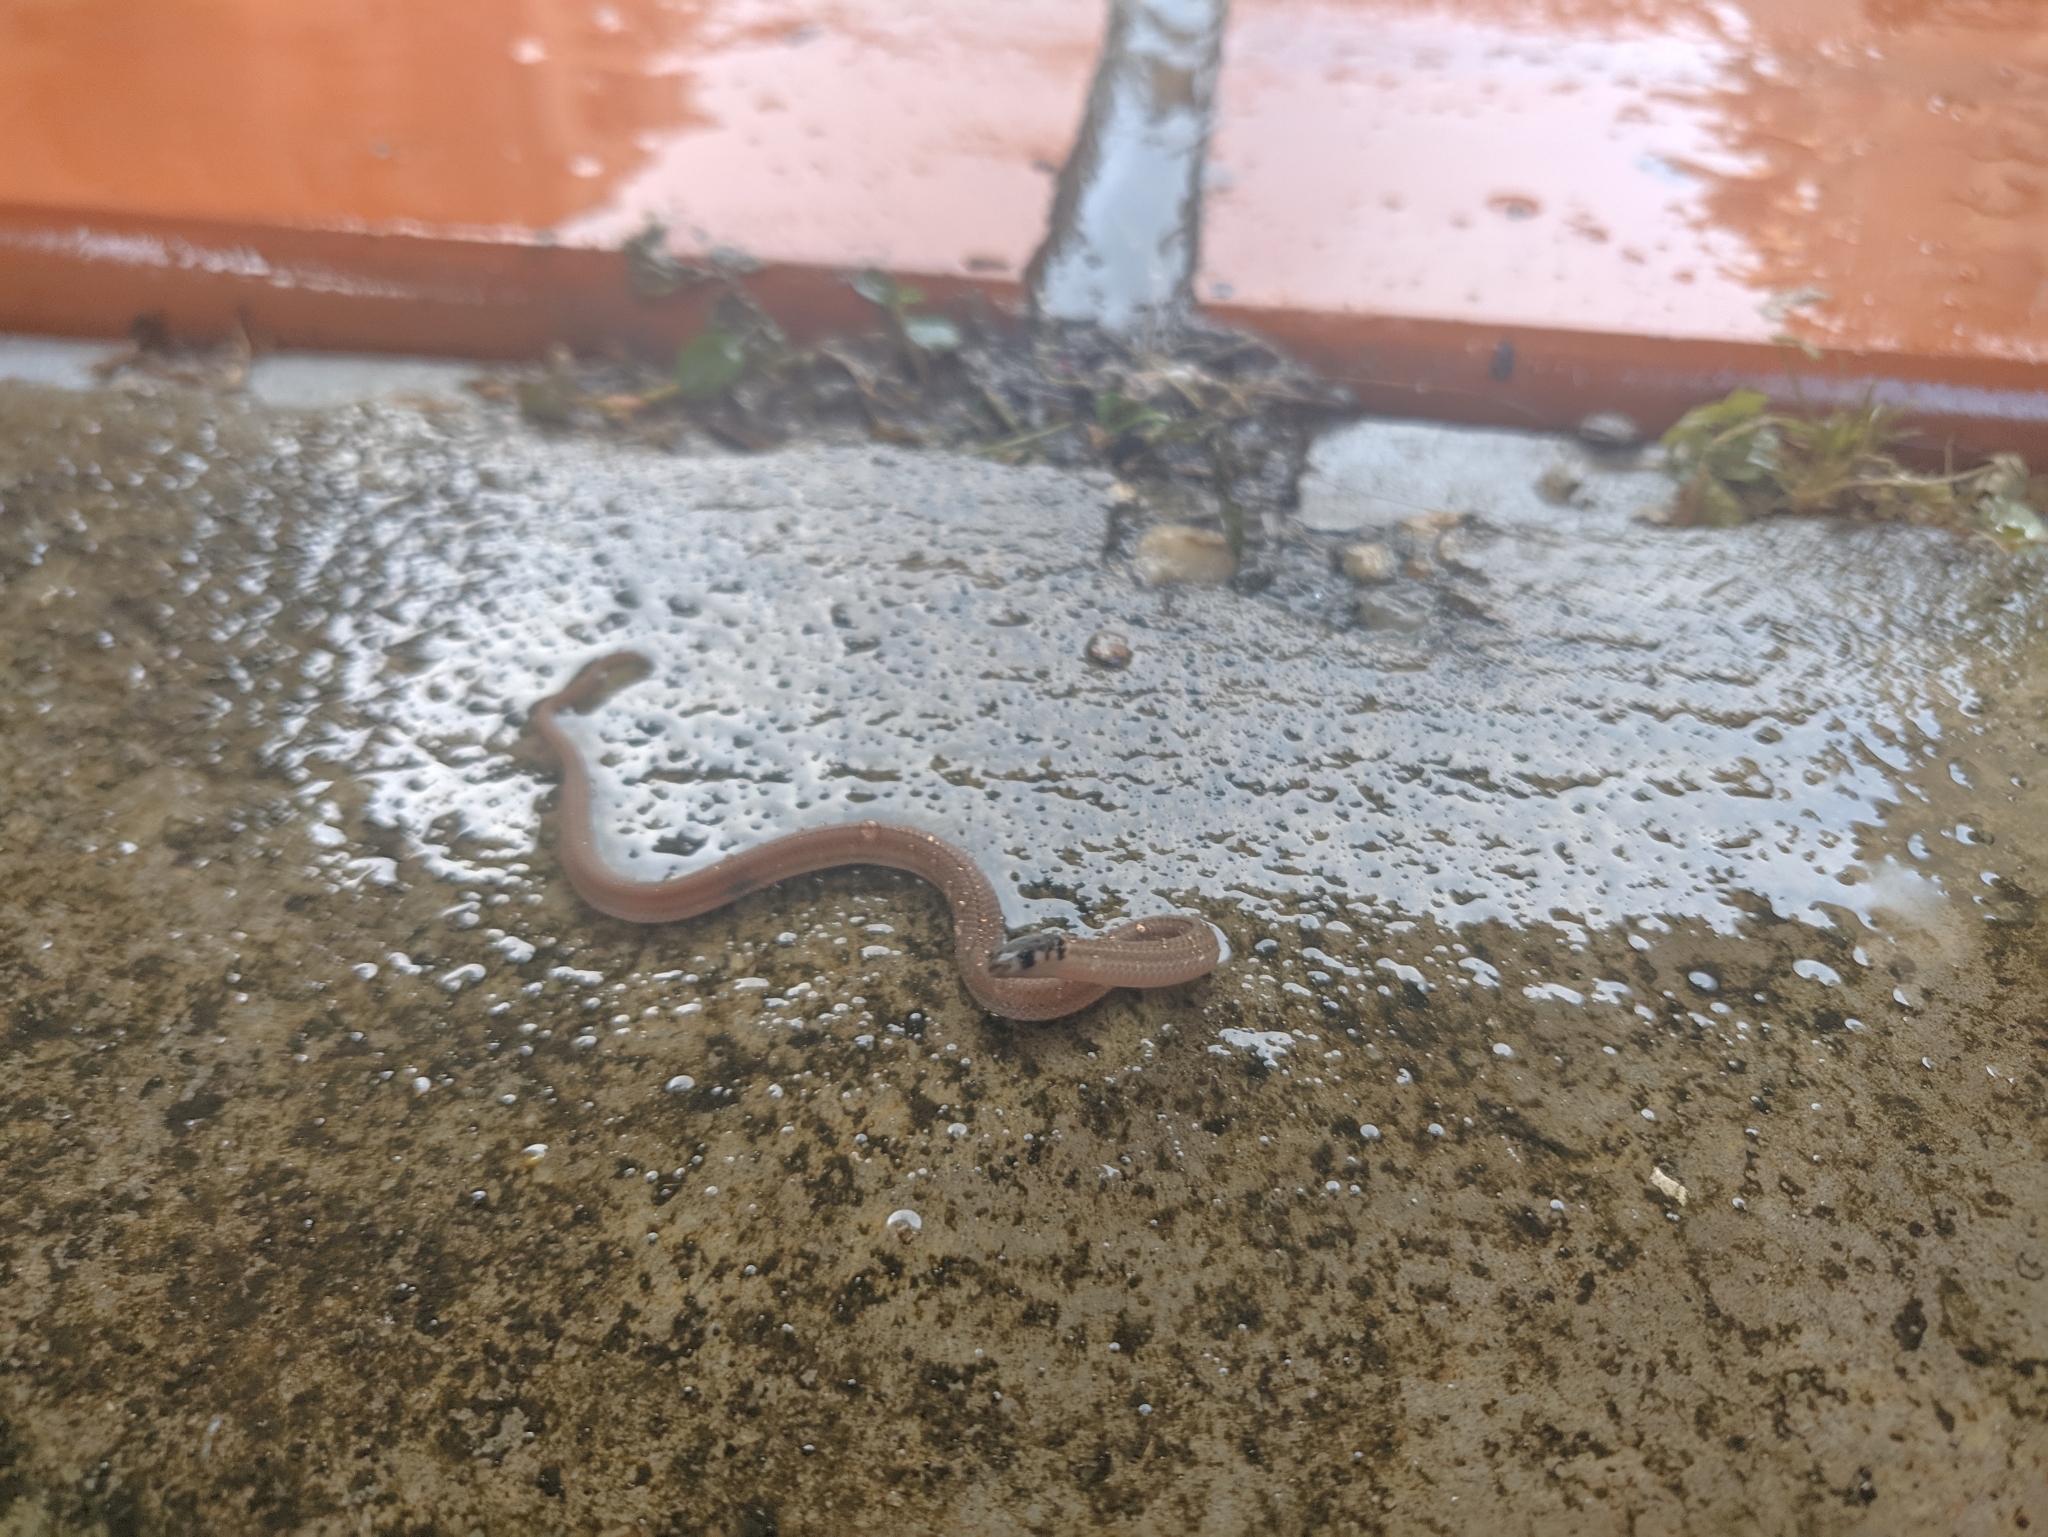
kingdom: Animalia
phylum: Chordata
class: Squamata
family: Colubridae
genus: Tantilla
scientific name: Tantilla melanocephala
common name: Black-headed snake
